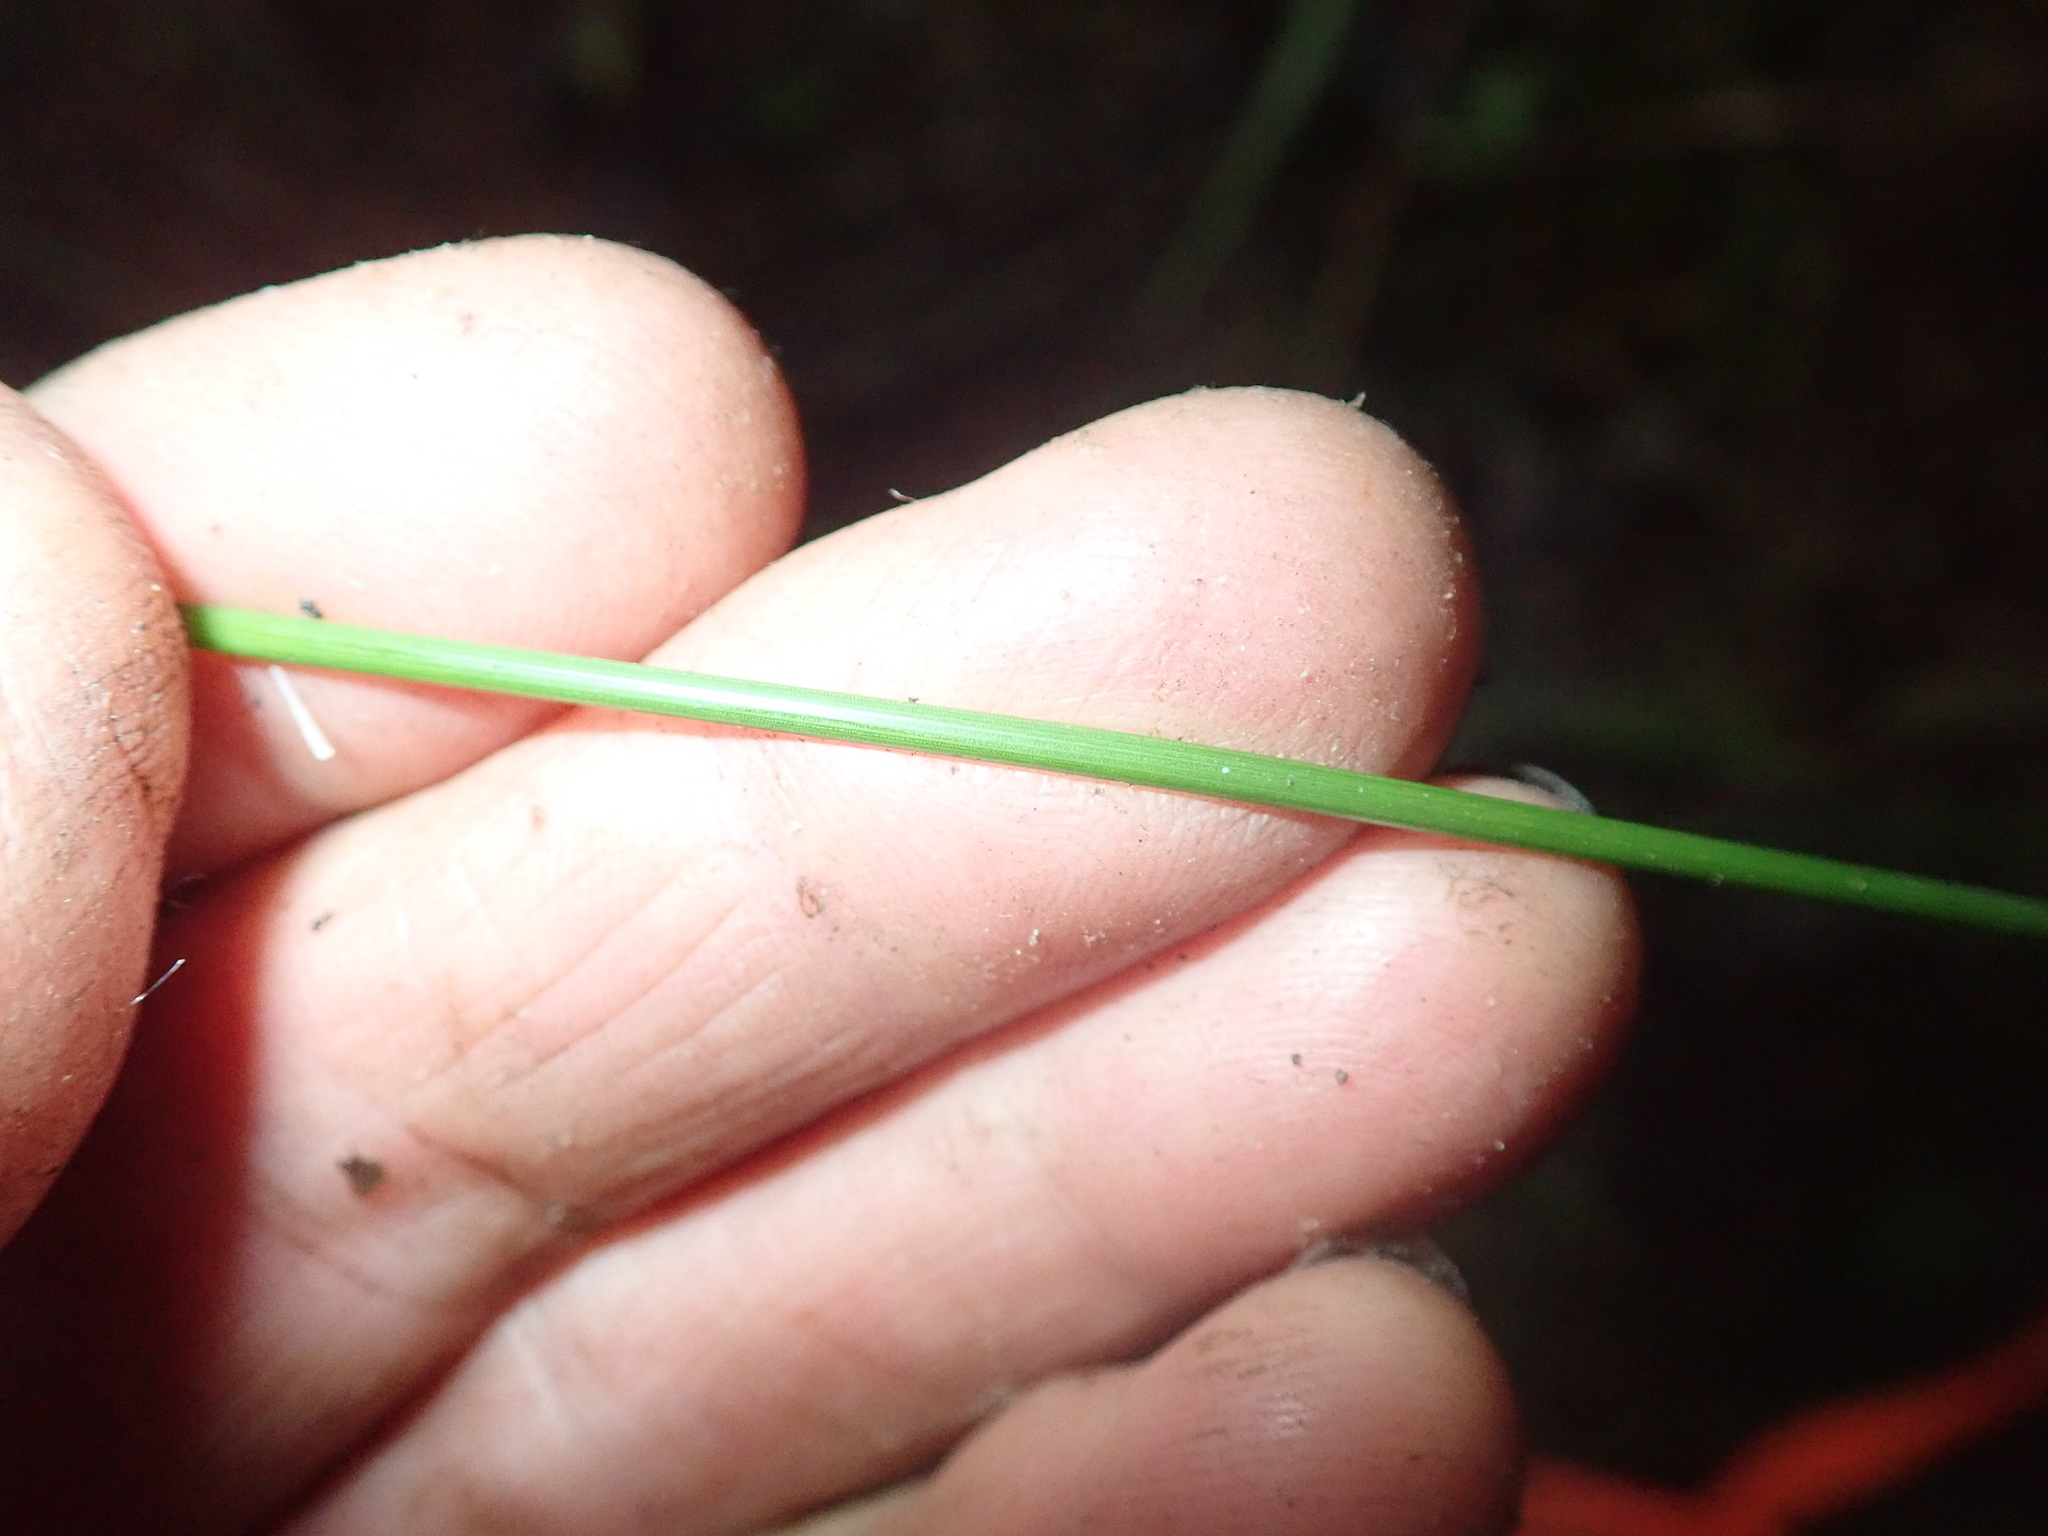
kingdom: Plantae
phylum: Tracheophyta
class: Liliopsida
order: Poales
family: Cyperaceae
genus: Schoenus
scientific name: Schoenus tendo
